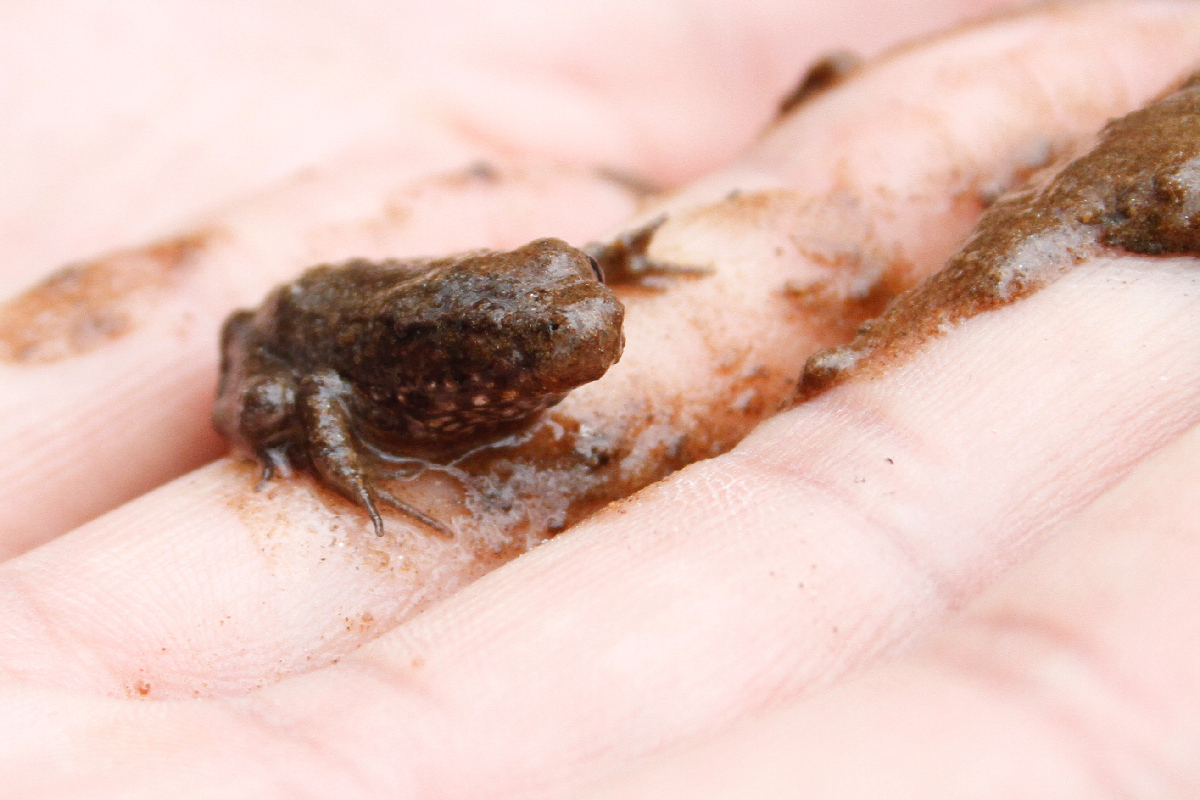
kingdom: Animalia
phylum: Chordata
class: Amphibia
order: Anura
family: Ranidae
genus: Lithobates
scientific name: Lithobates clamitans
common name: Green frog
